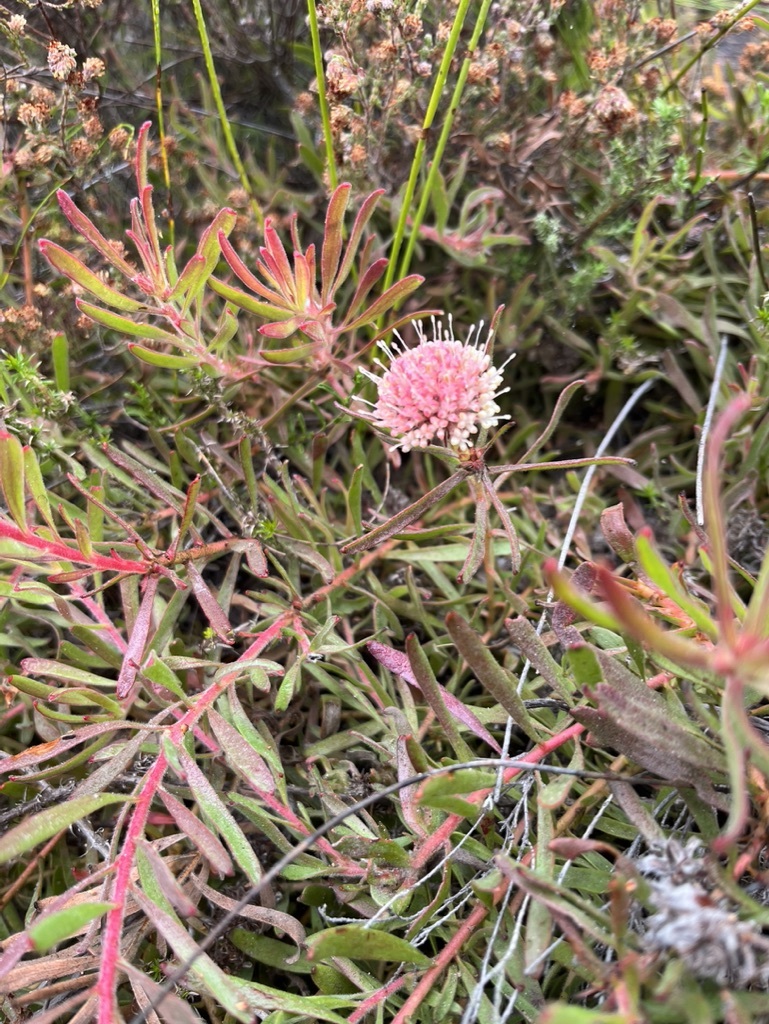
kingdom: Plantae
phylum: Tracheophyta
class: Magnoliopsida
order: Proteales
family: Proteaceae
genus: Leucospermum
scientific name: Leucospermum pedunculatum
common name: White-trailing pincushion
